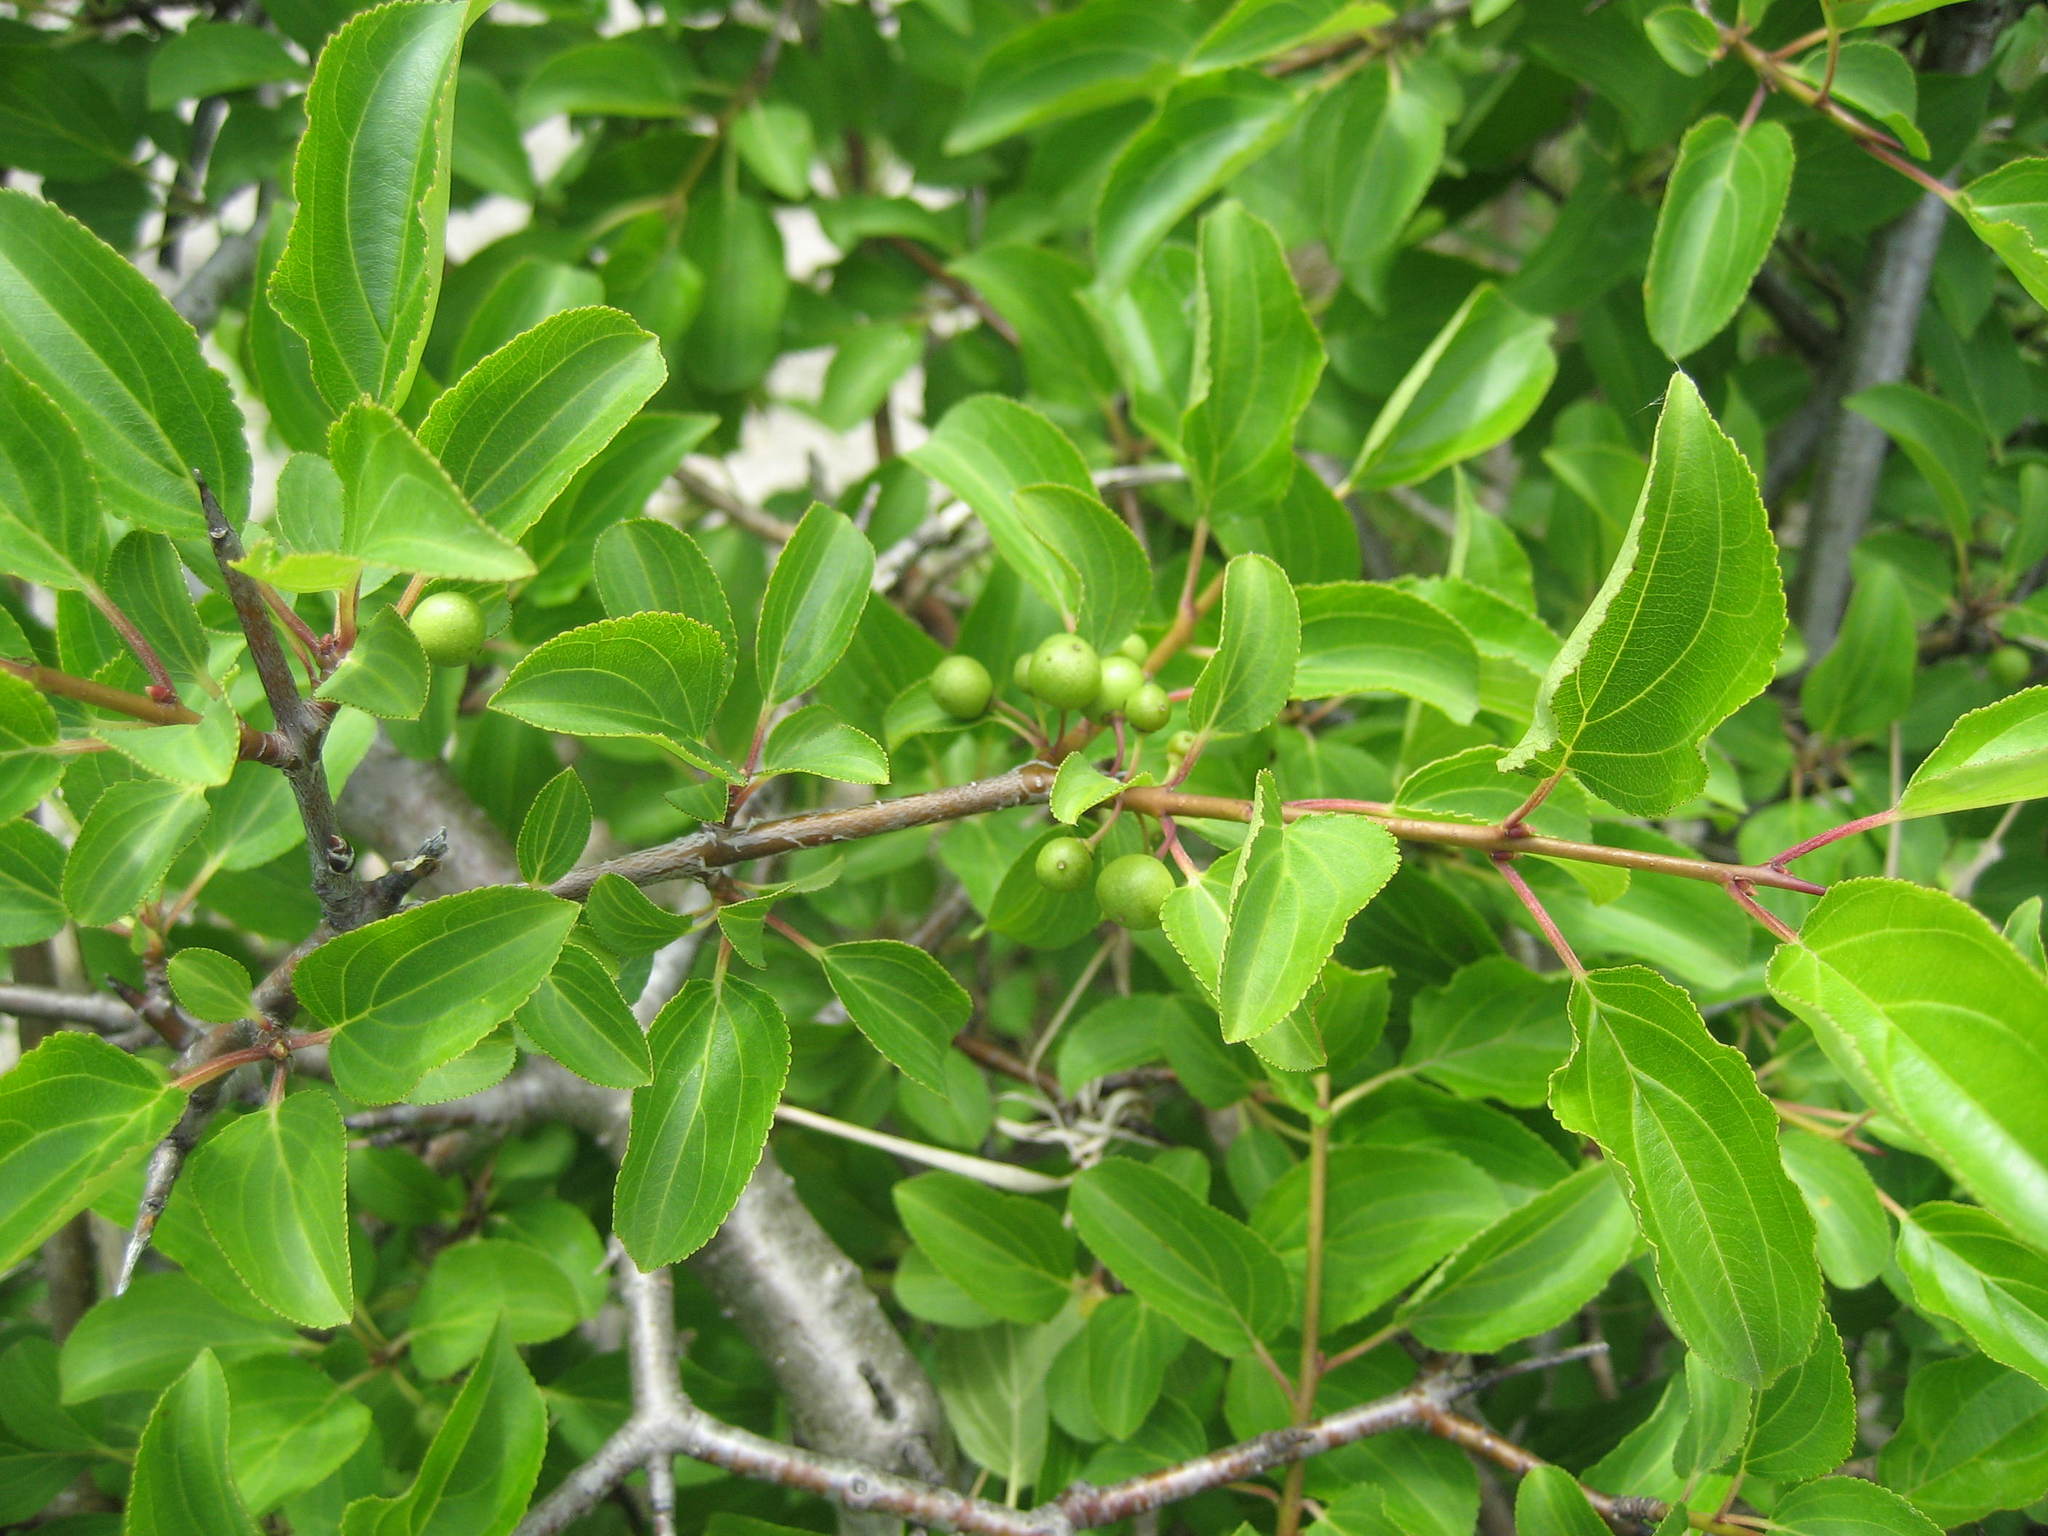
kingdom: Plantae
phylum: Tracheophyta
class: Magnoliopsida
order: Rosales
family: Rhamnaceae
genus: Rhamnus
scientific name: Rhamnus cathartica
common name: Common buckthorn
